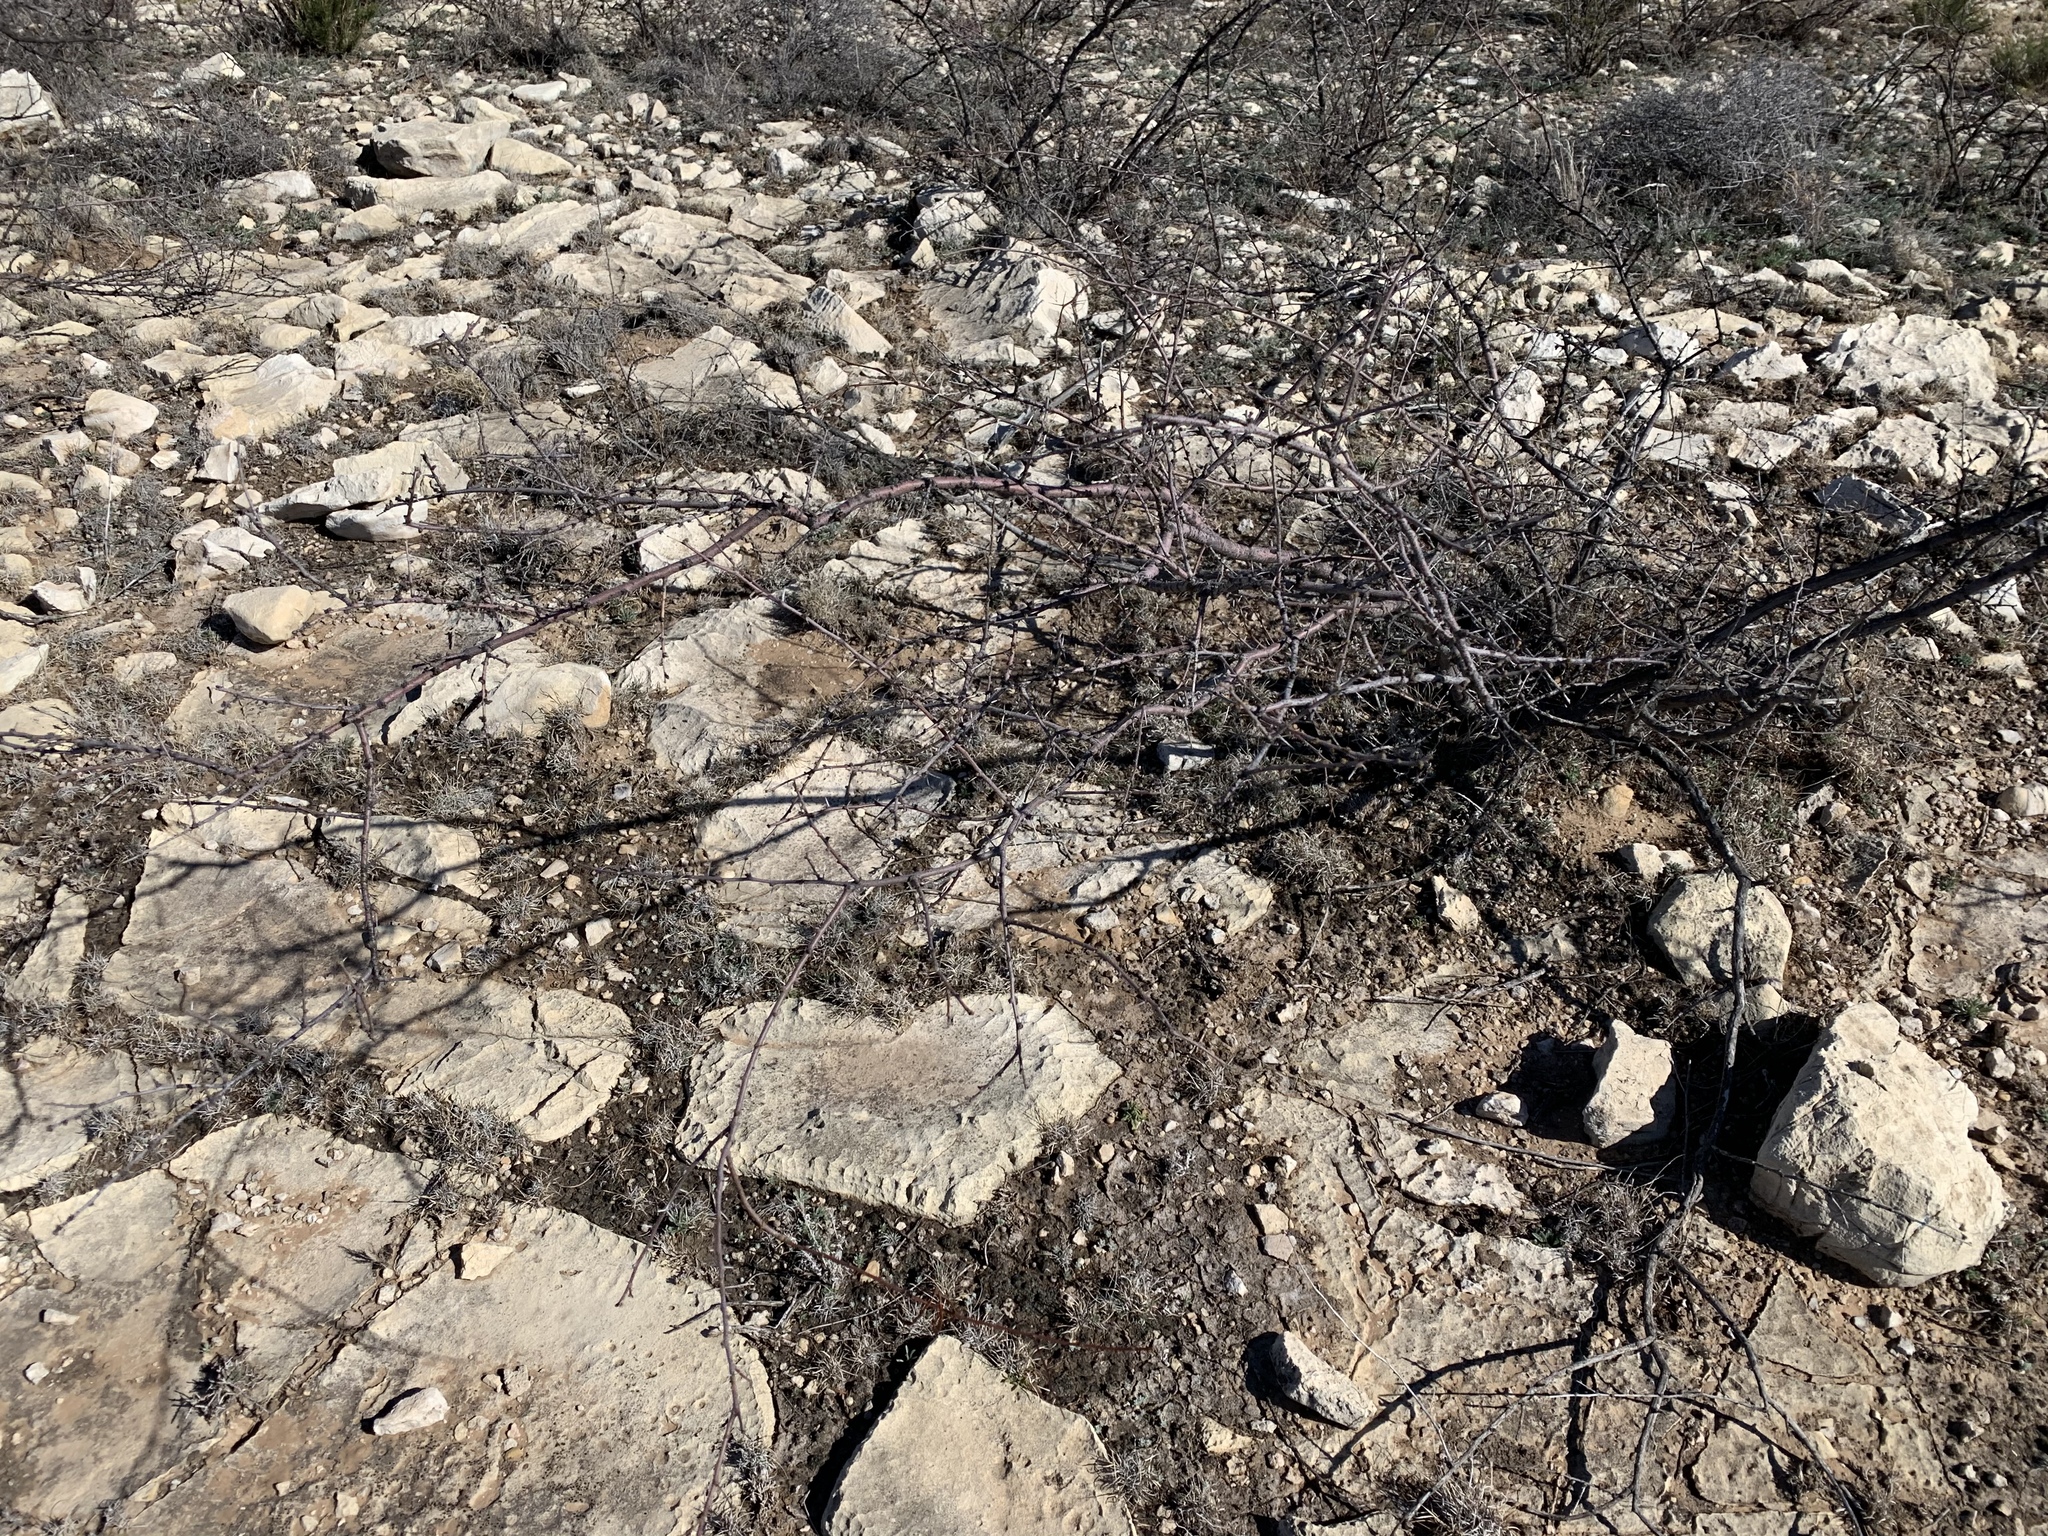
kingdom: Plantae
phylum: Tracheophyta
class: Magnoliopsida
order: Fabales
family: Fabaceae
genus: Vachellia
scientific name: Vachellia constricta
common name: Mescat acacia
